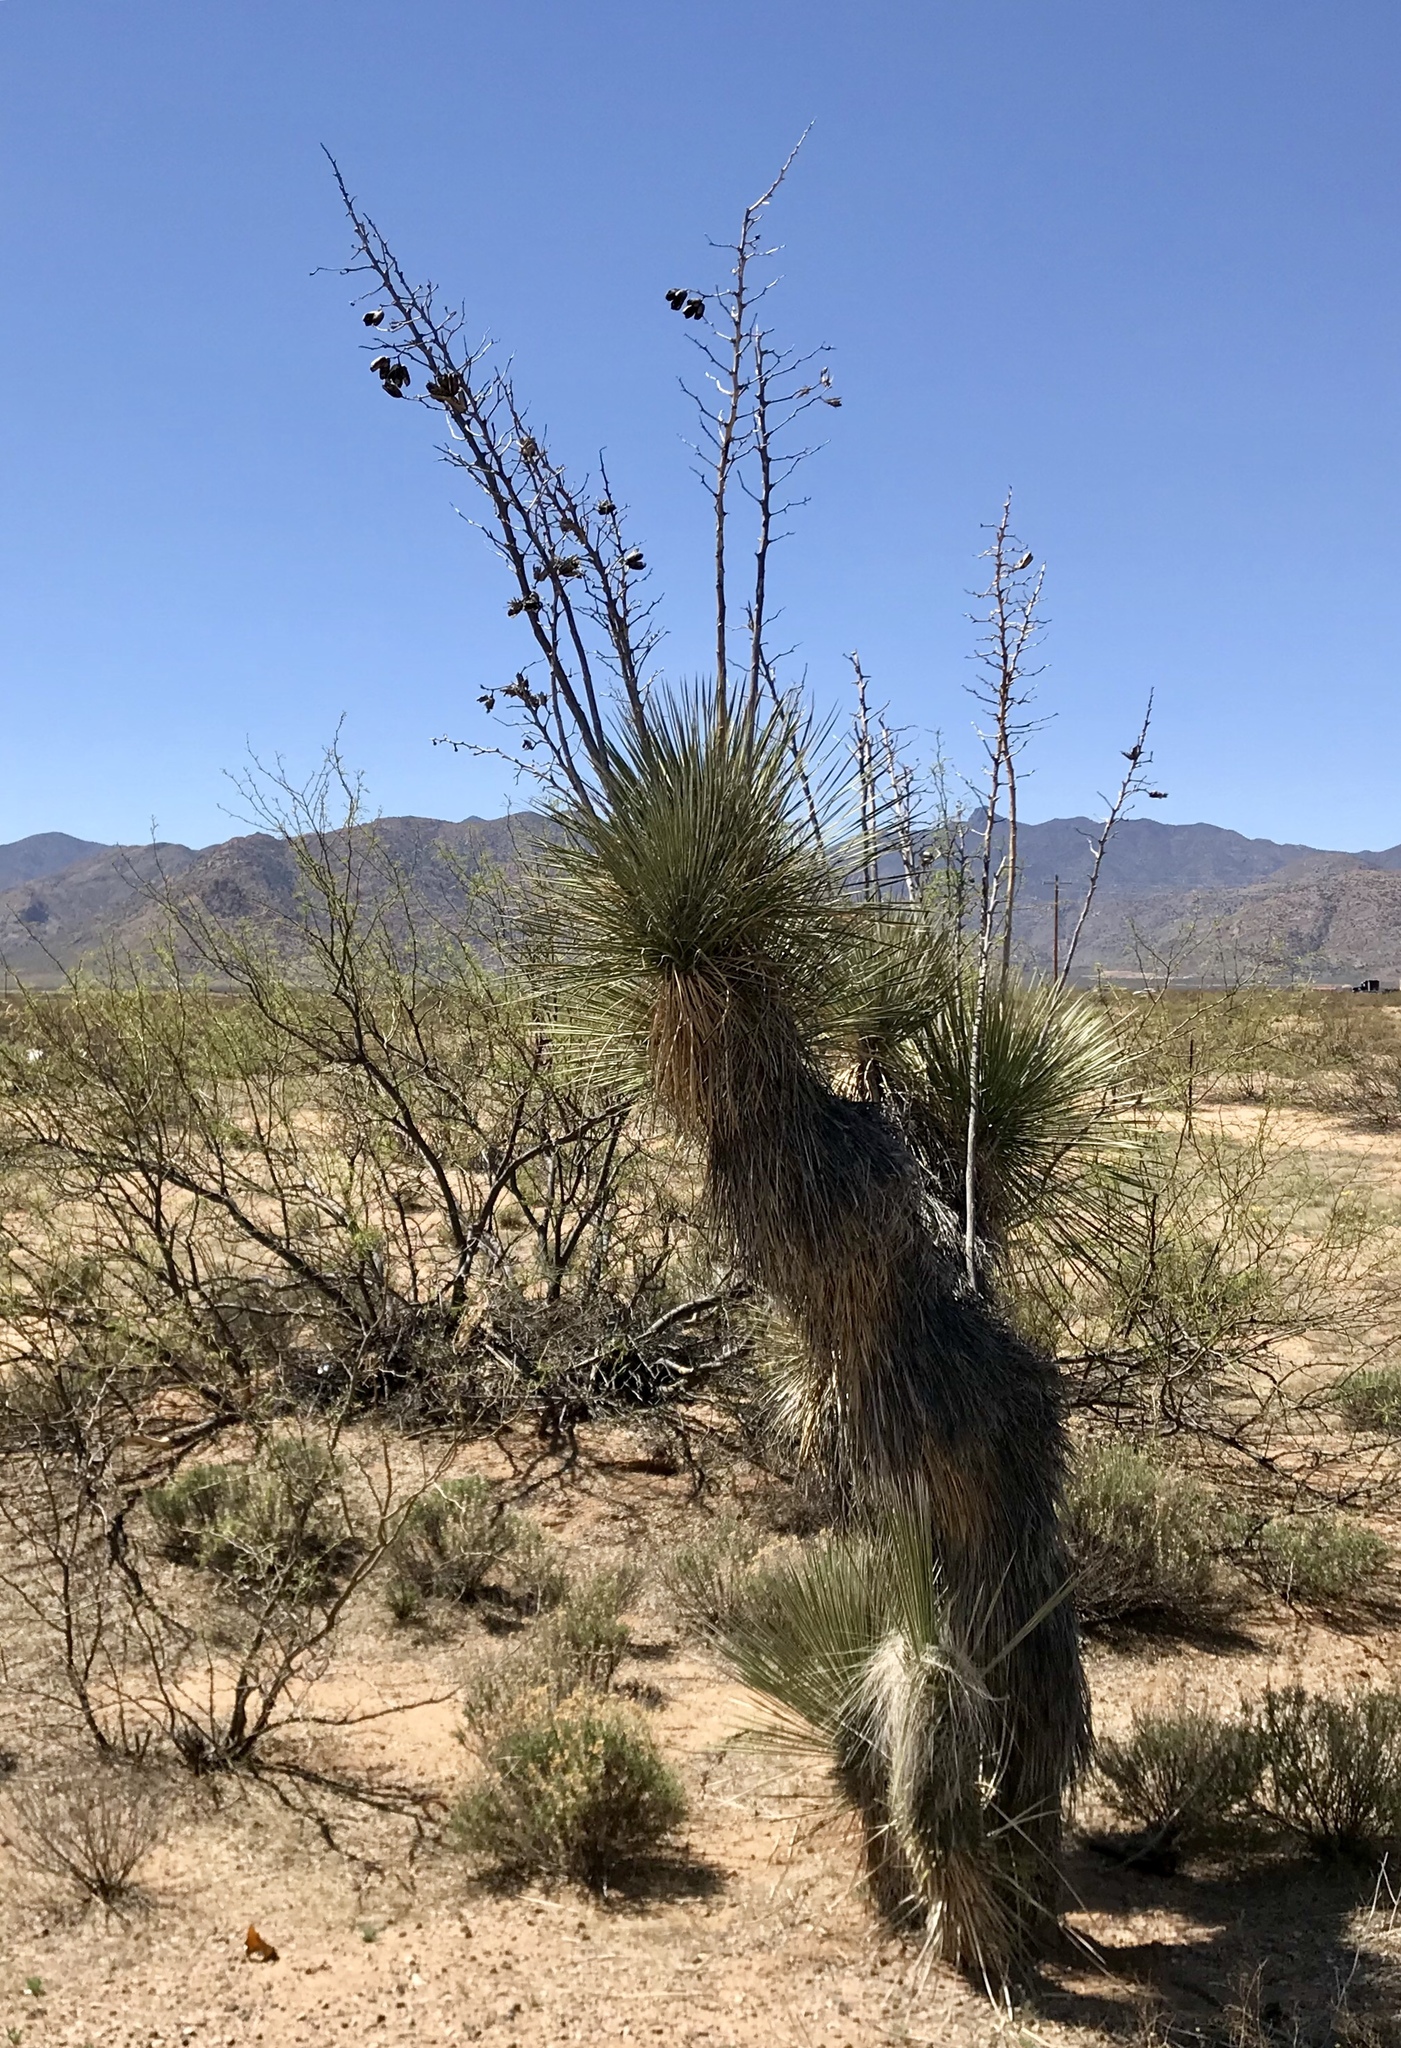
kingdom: Plantae
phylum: Tracheophyta
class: Liliopsida
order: Asparagales
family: Asparagaceae
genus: Yucca
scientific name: Yucca elata
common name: Palmella
